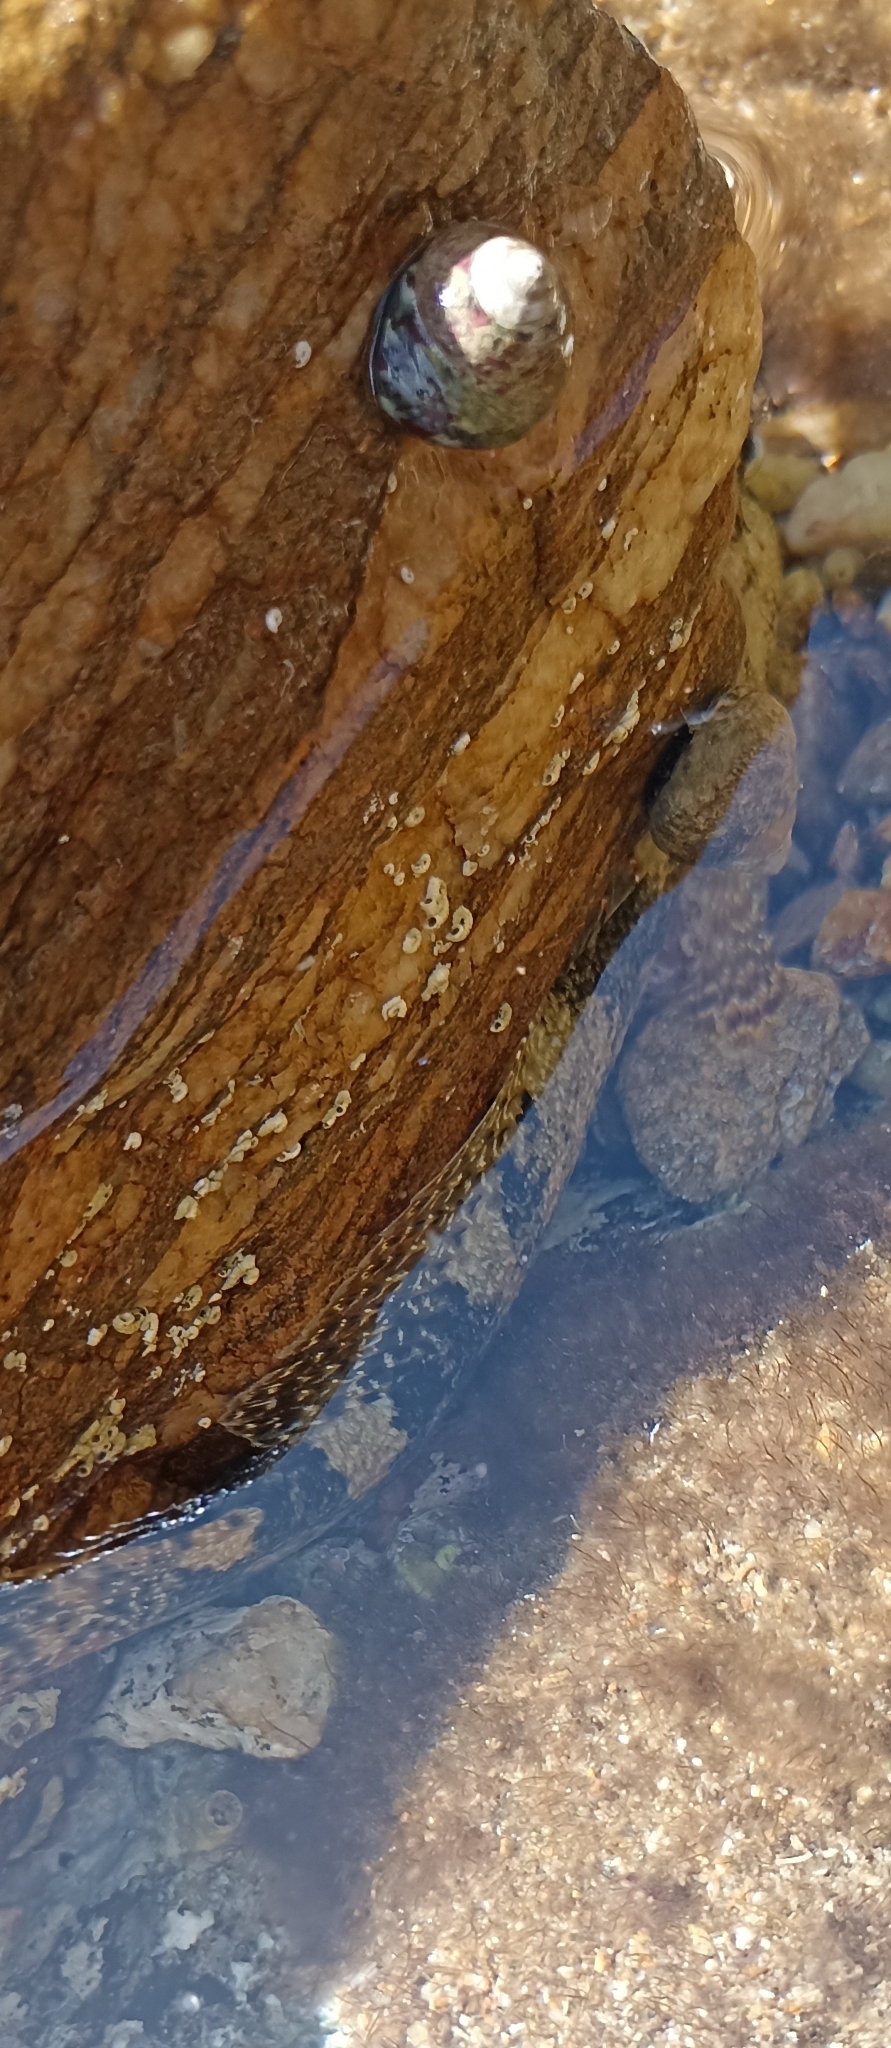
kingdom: Animalia
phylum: Chordata
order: Perciformes
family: Gobiidae
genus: Gobius
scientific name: Gobius cobitis
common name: Giant goby
